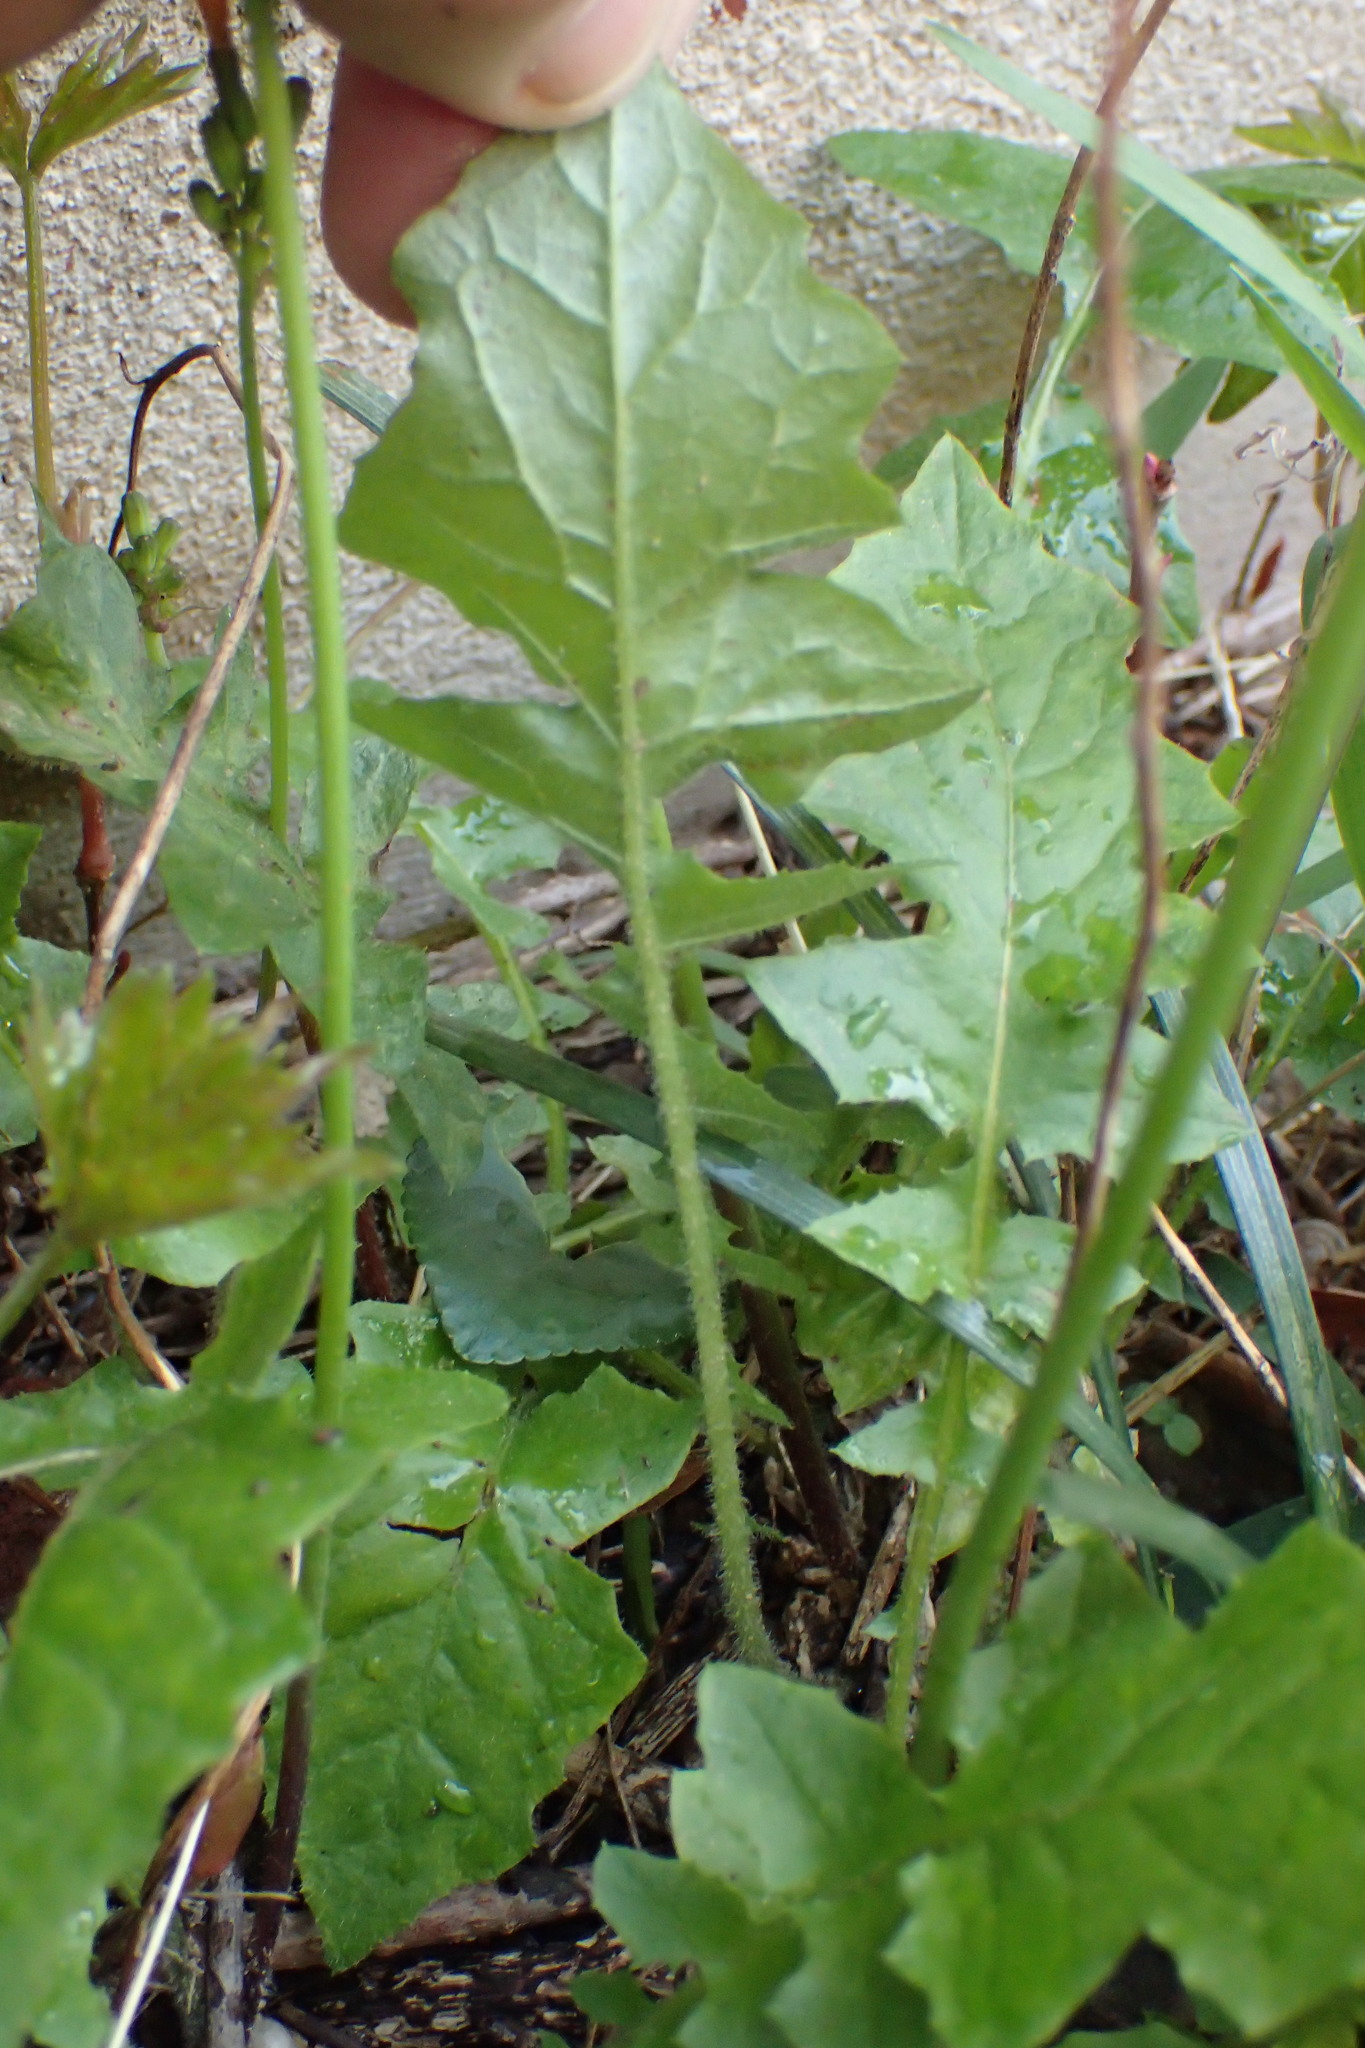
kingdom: Plantae
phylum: Tracheophyta
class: Magnoliopsida
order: Asterales
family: Asteraceae
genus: Youngia
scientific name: Youngia japonica
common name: Oriental false hawksbeard
